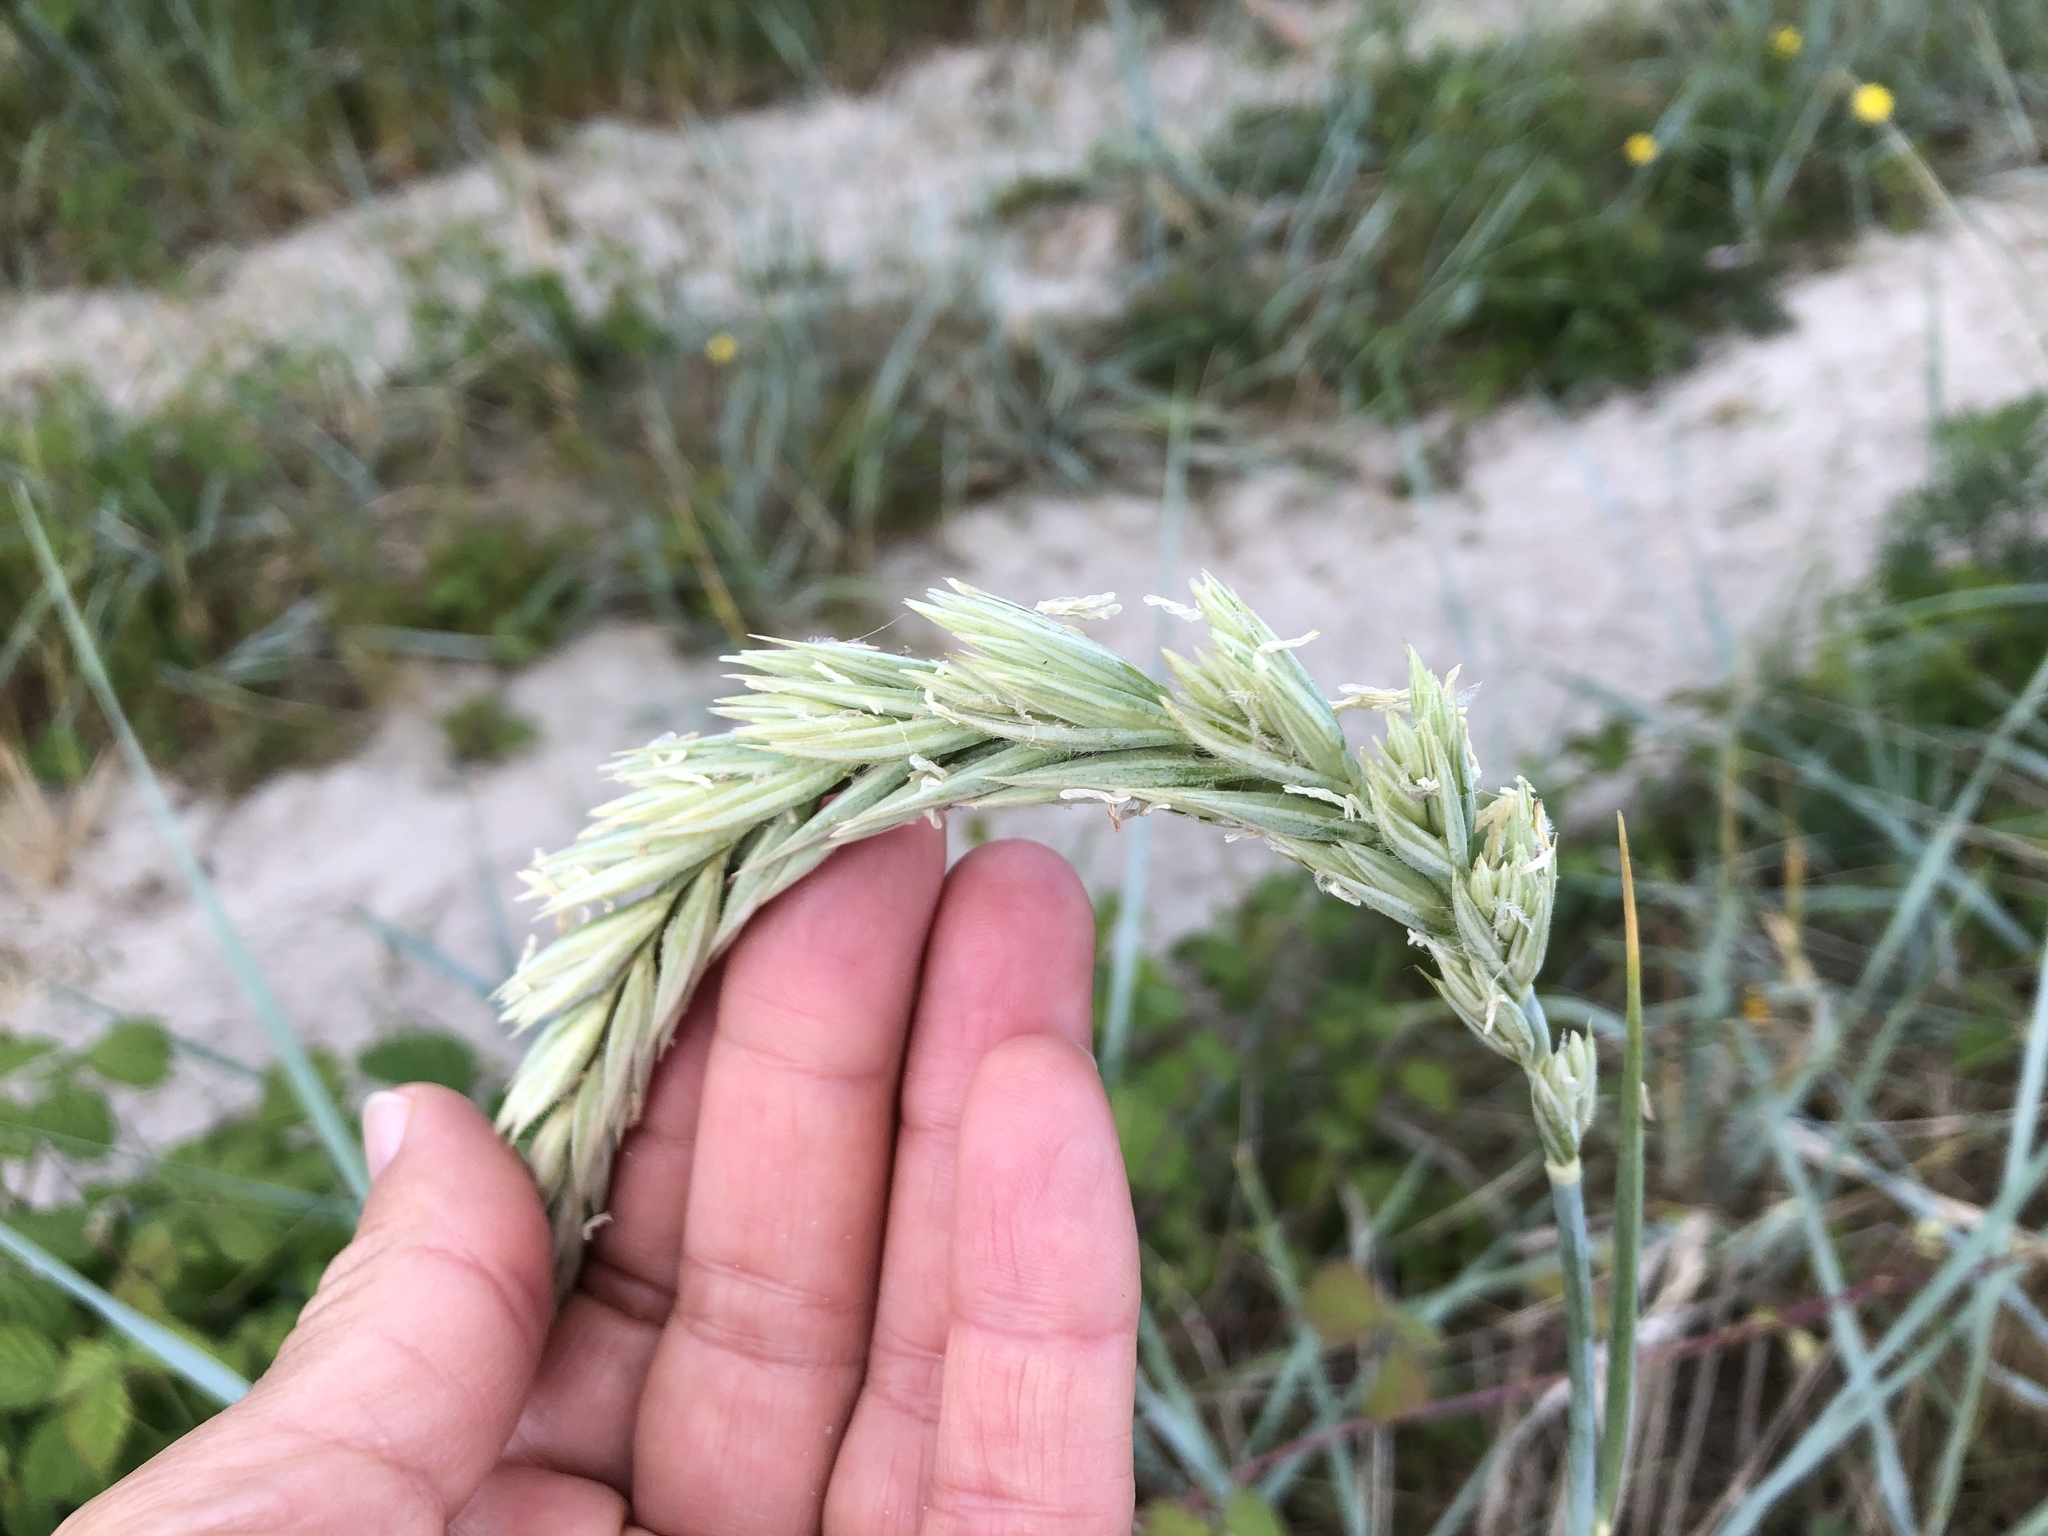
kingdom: Plantae
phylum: Tracheophyta
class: Liliopsida
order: Poales
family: Poaceae
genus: Leymus
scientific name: Leymus arenarius
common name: Lyme-grass
